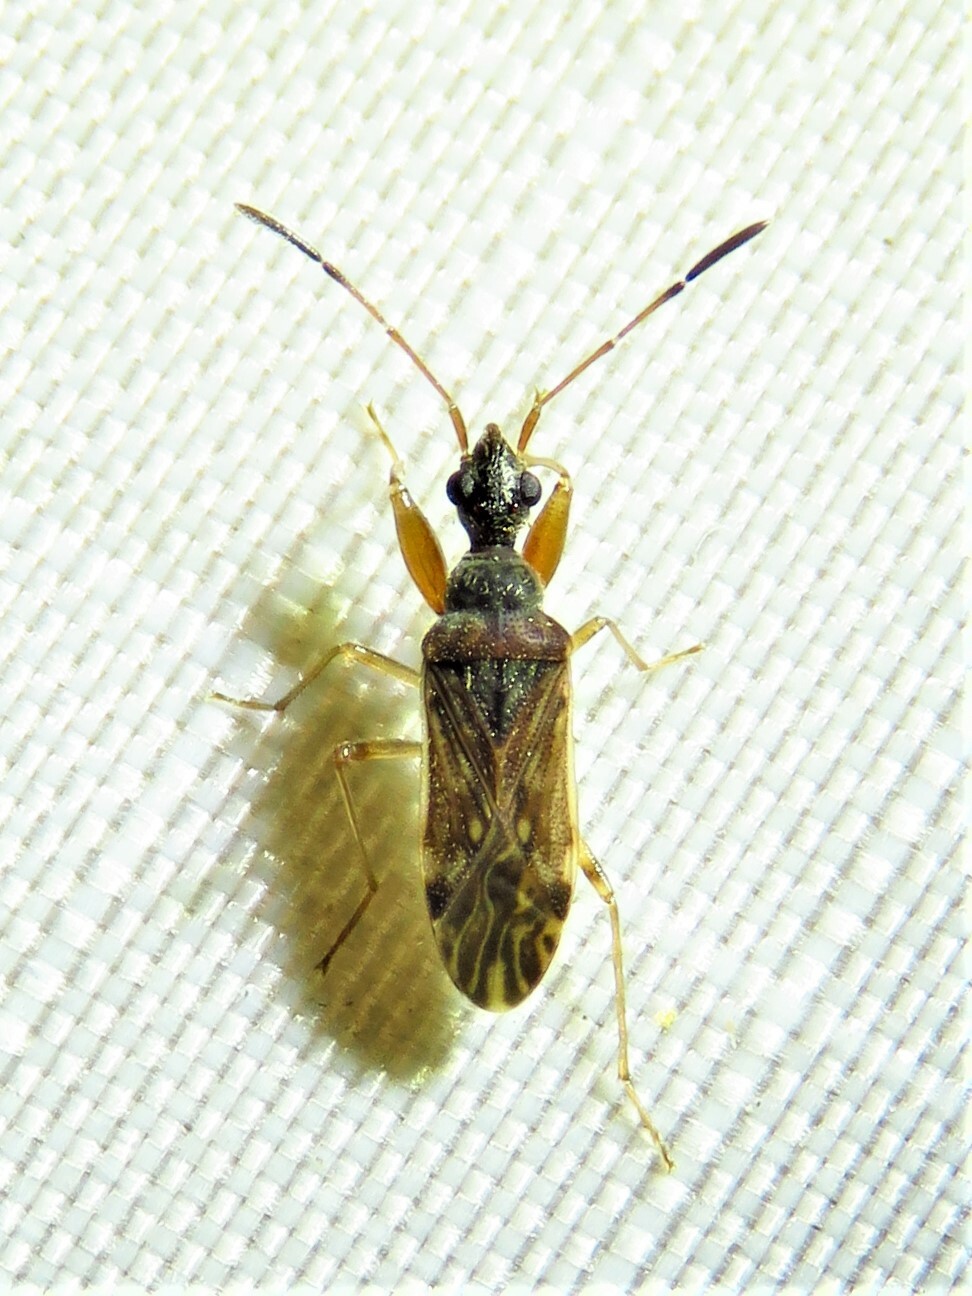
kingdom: Animalia
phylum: Arthropoda
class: Insecta
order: Hemiptera
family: Rhyparochromidae
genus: Heraeus
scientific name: Heraeus plebejus
